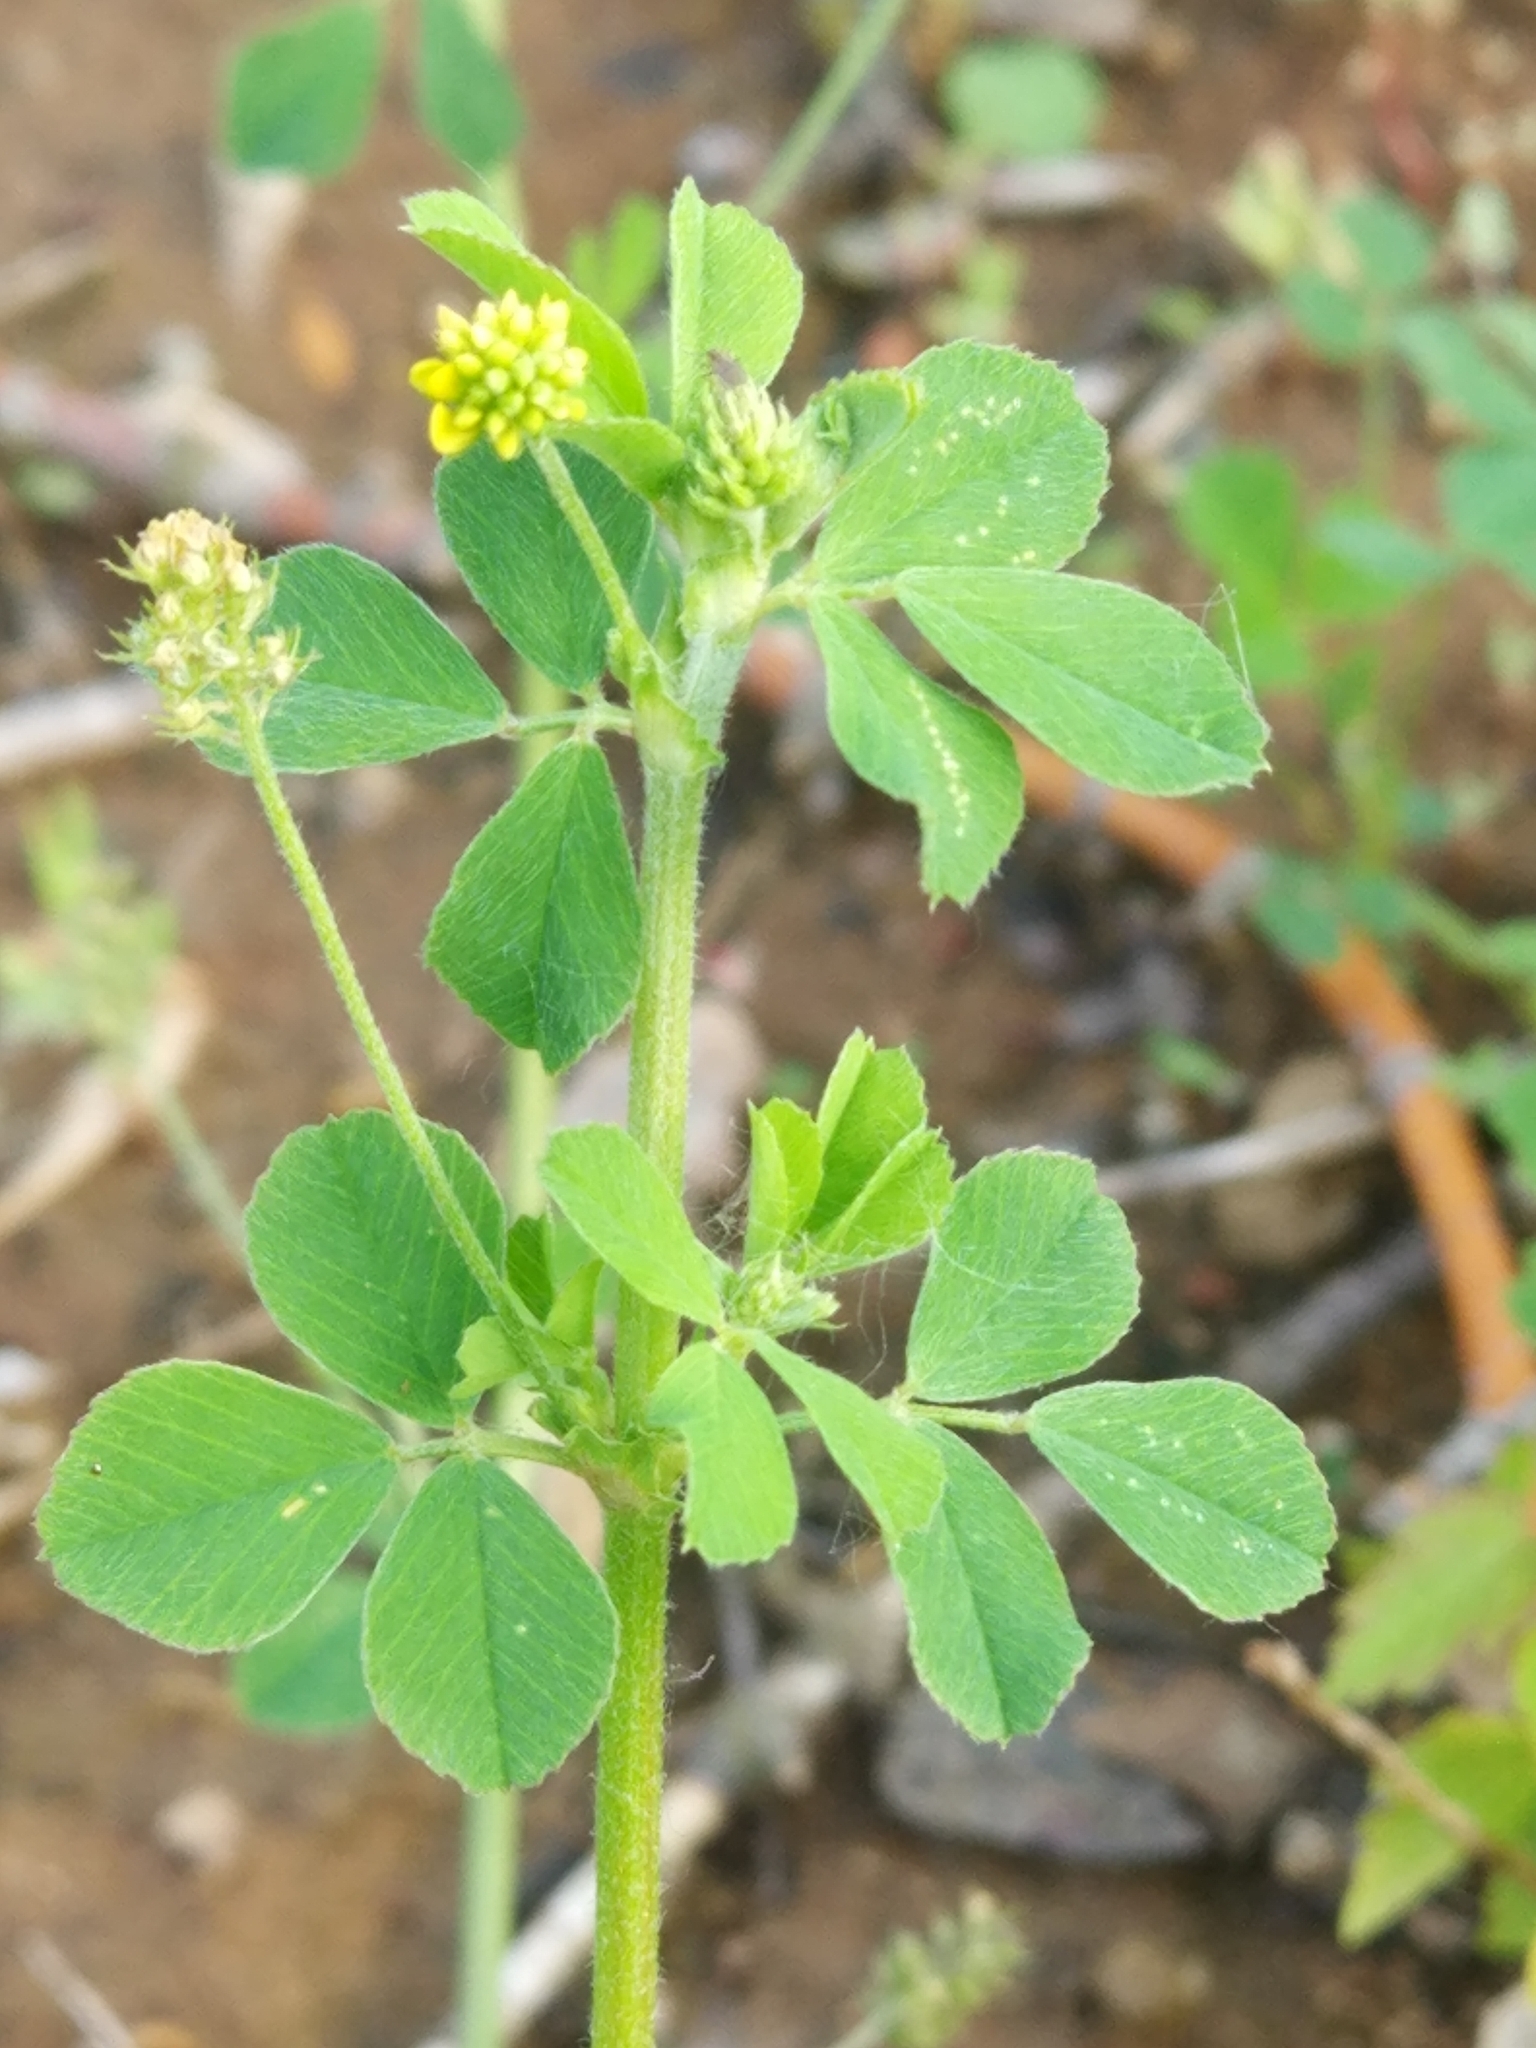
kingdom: Plantae
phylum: Tracheophyta
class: Magnoliopsida
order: Fabales
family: Fabaceae
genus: Medicago
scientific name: Medicago lupulina
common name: Black medick
